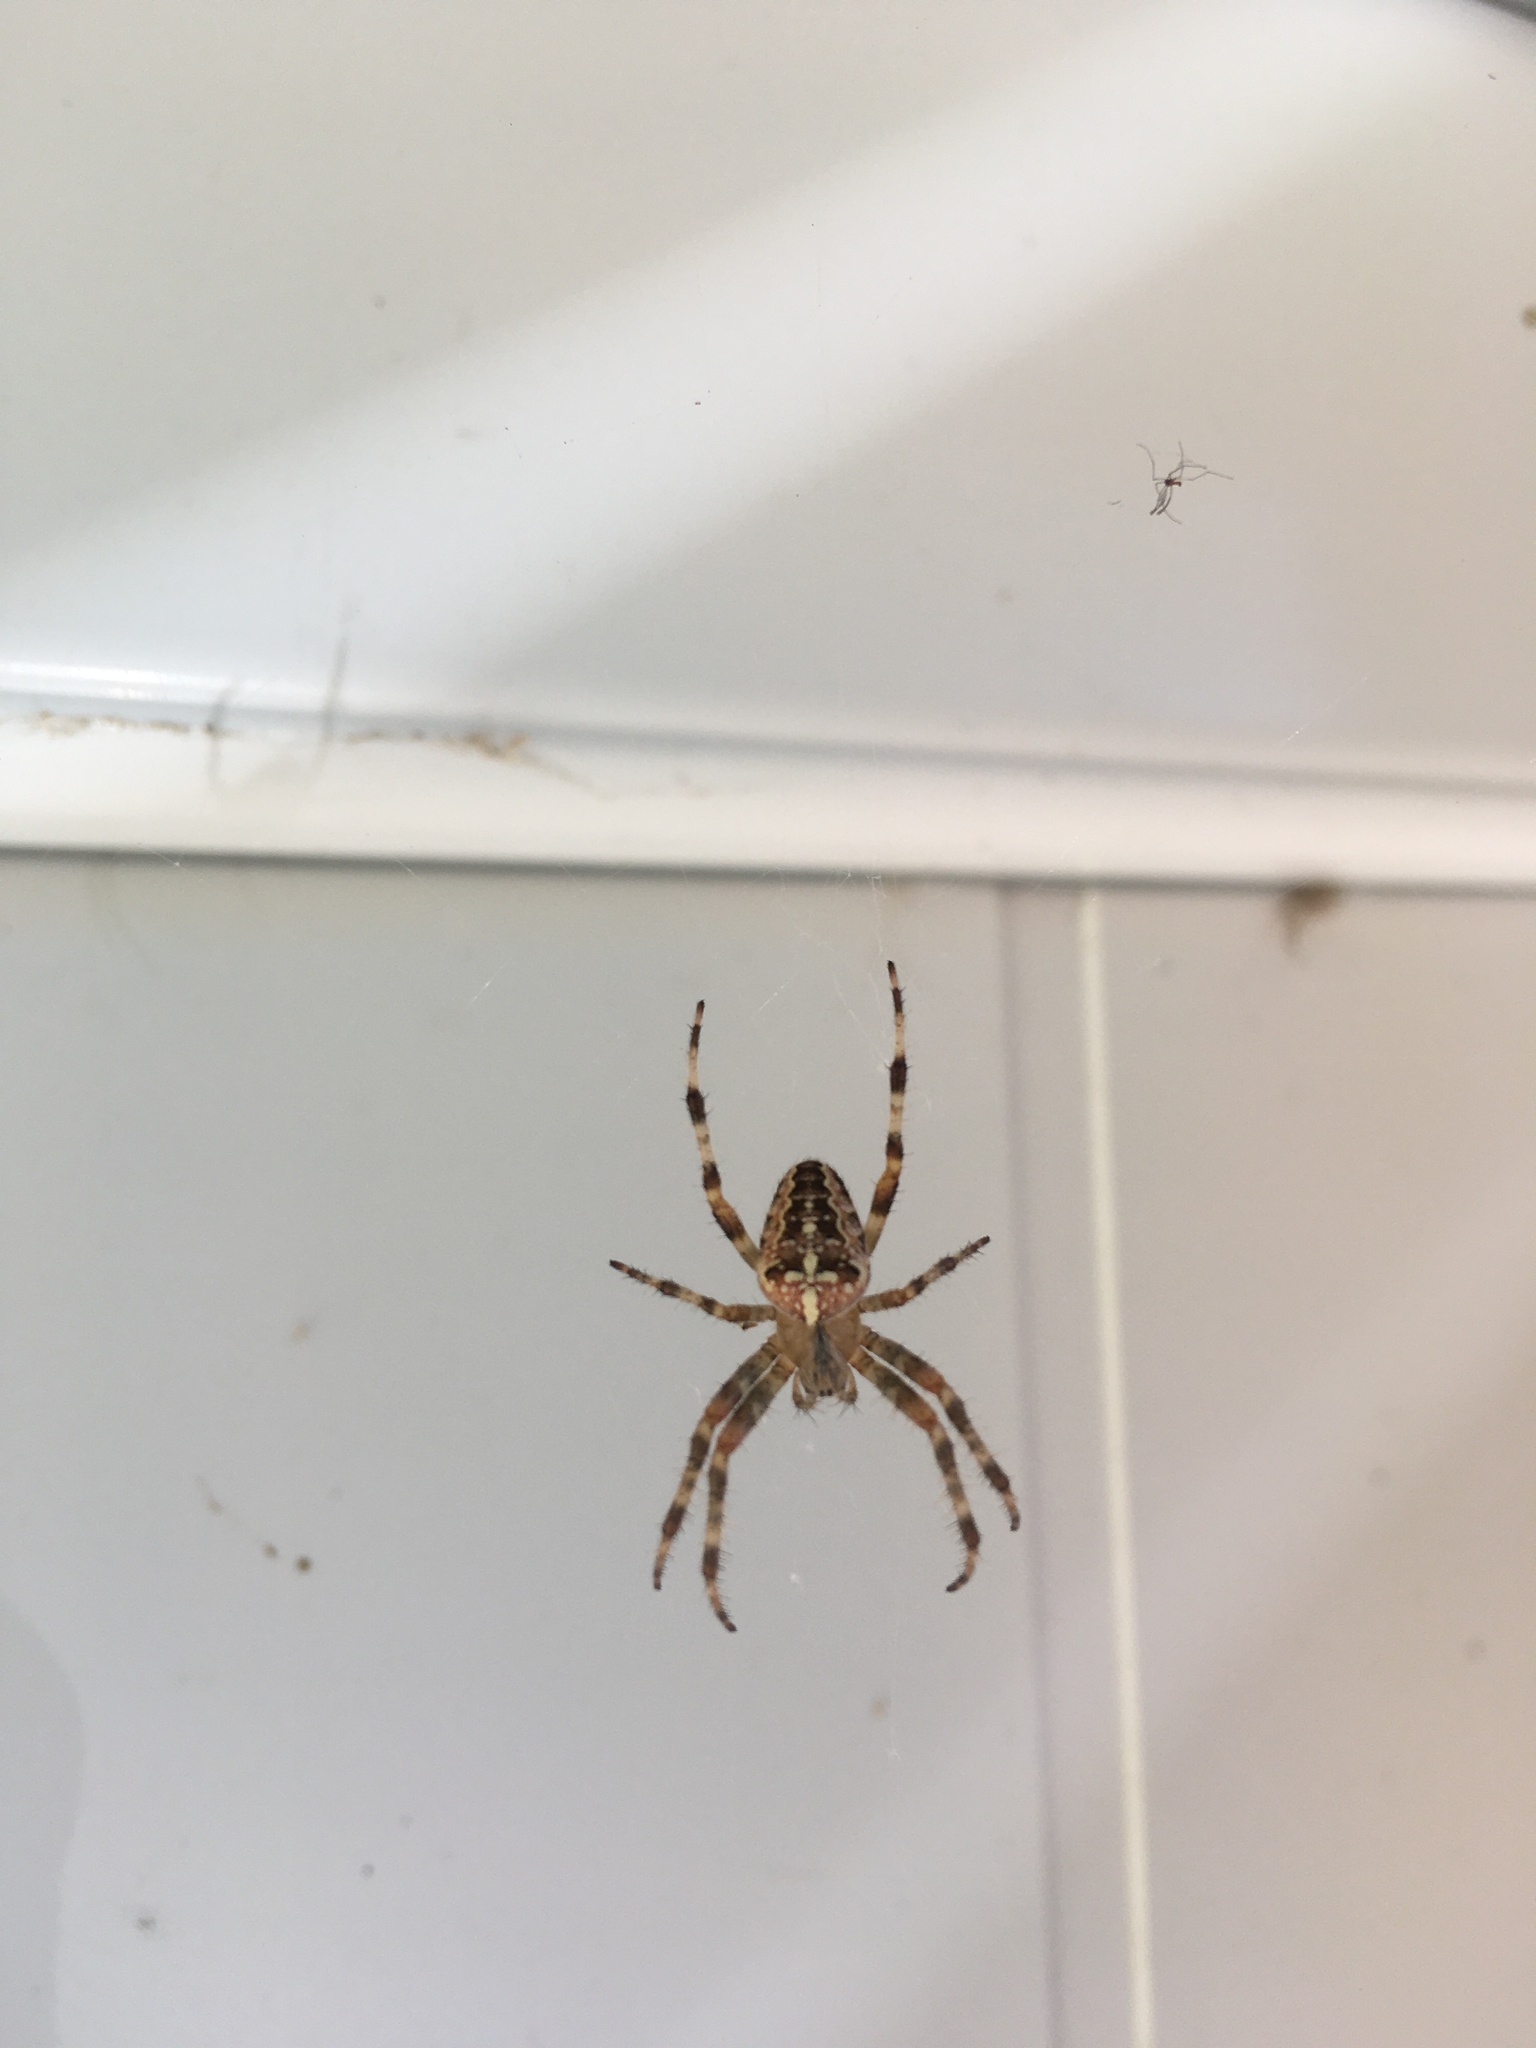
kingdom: Animalia
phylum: Arthropoda
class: Arachnida
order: Araneae
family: Araneidae
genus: Araneus
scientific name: Araneus diadematus
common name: Cross orbweaver
